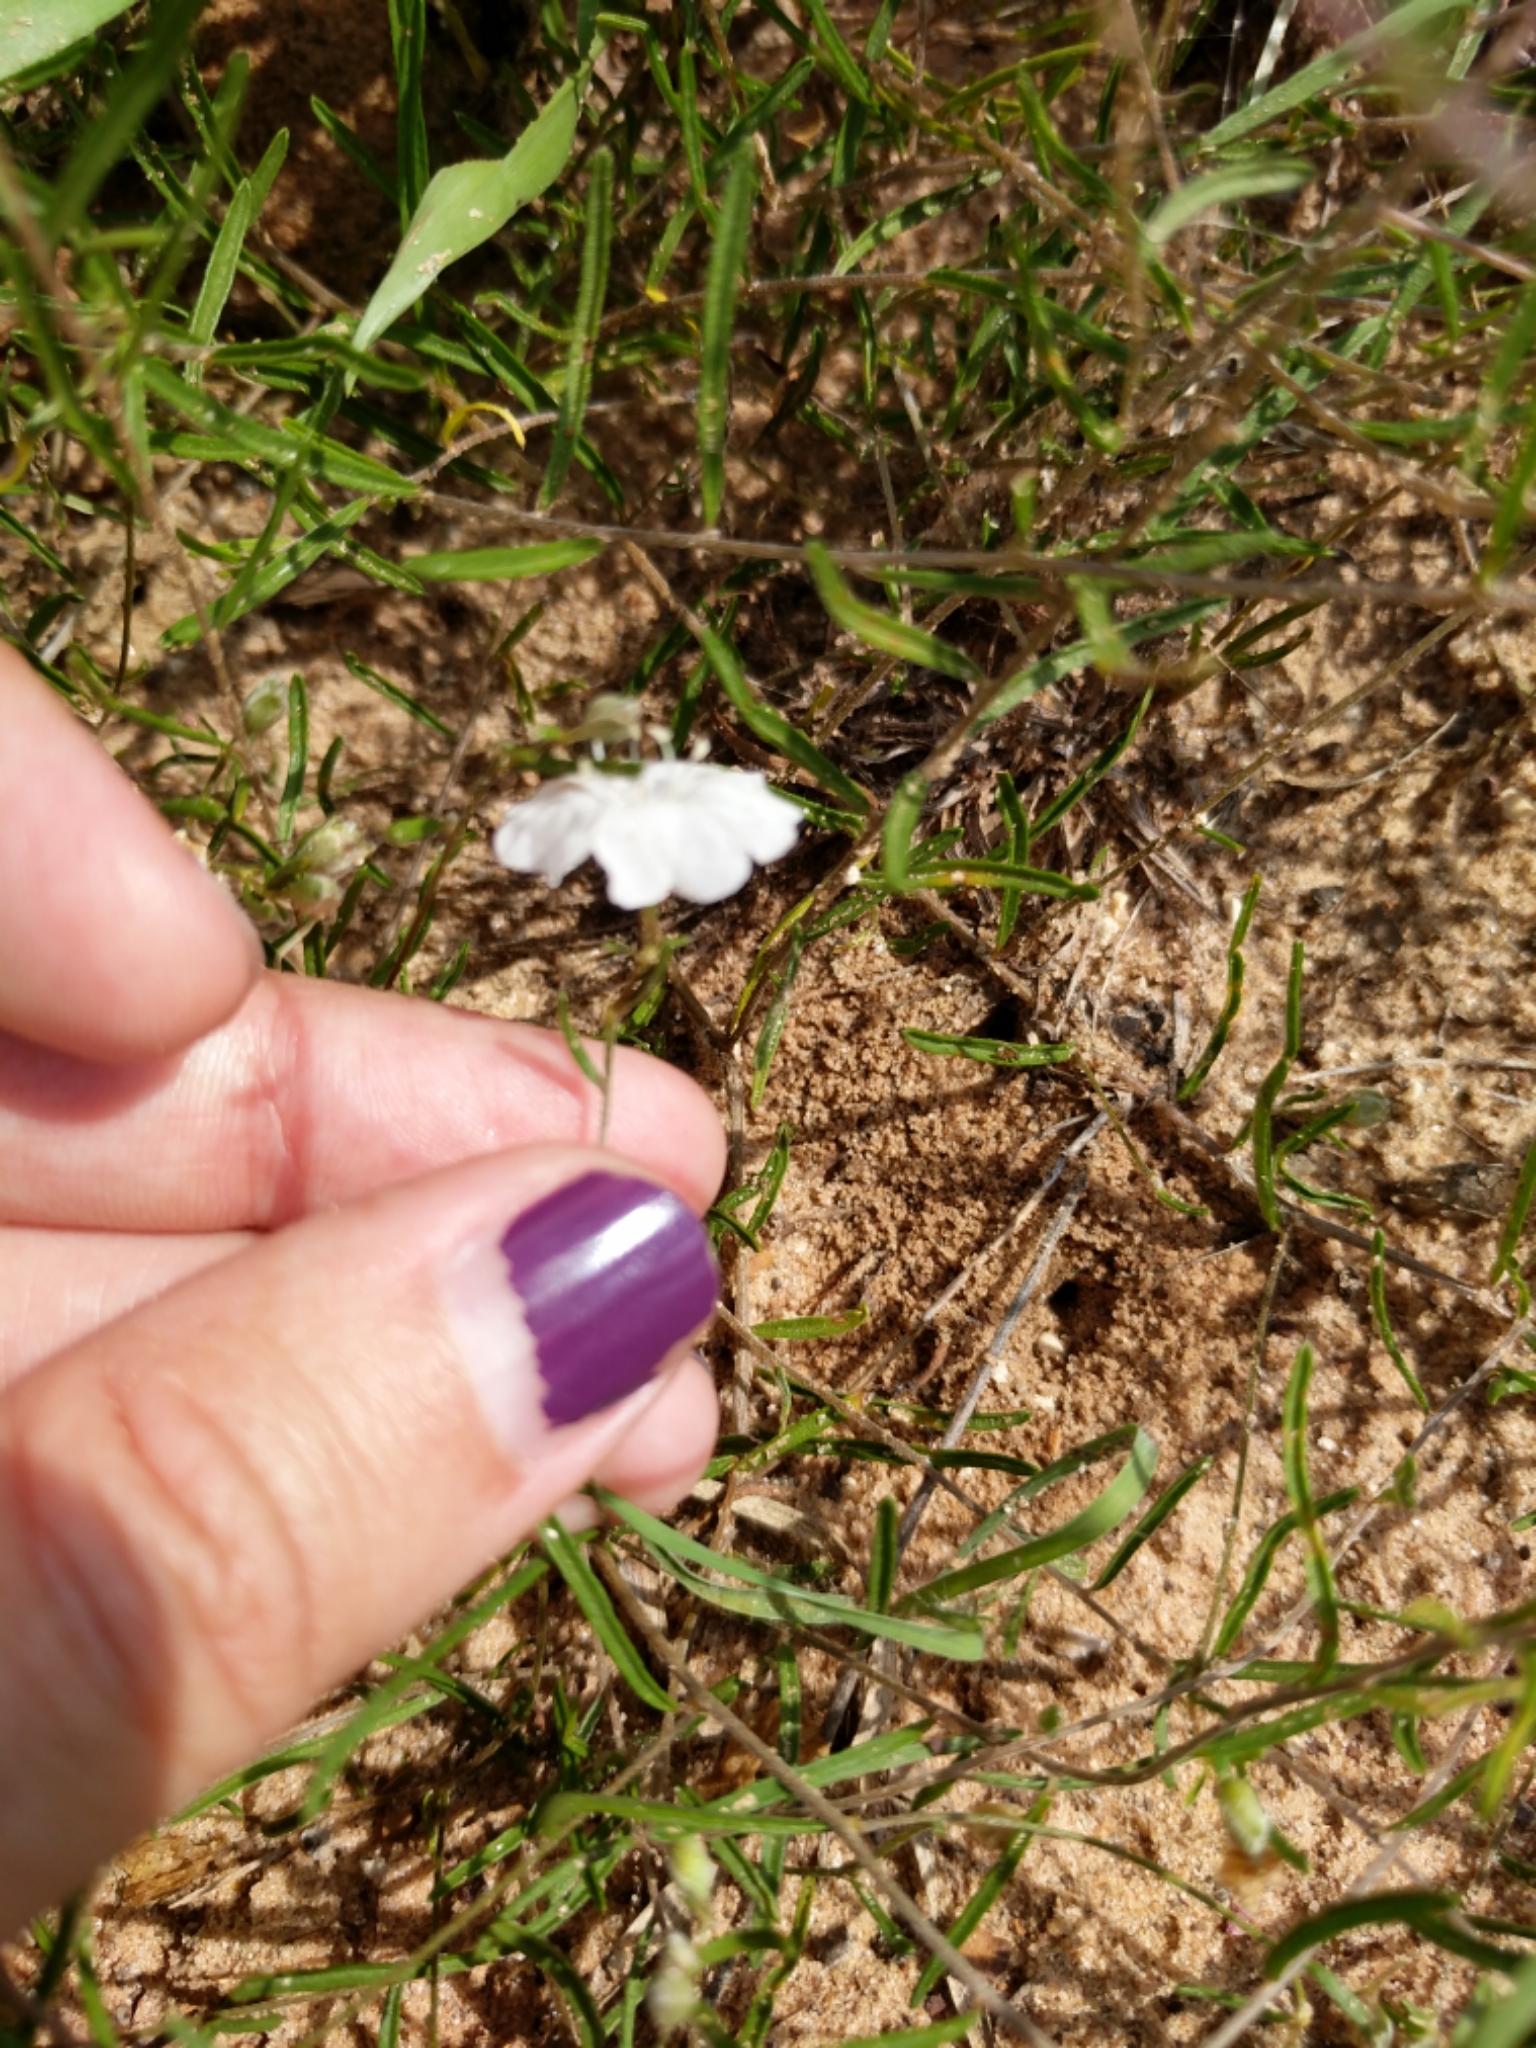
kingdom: Plantae
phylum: Tracheophyta
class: Magnoliopsida
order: Solanales
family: Convolvulaceae
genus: Stylisma
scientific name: Stylisma pickeringii
